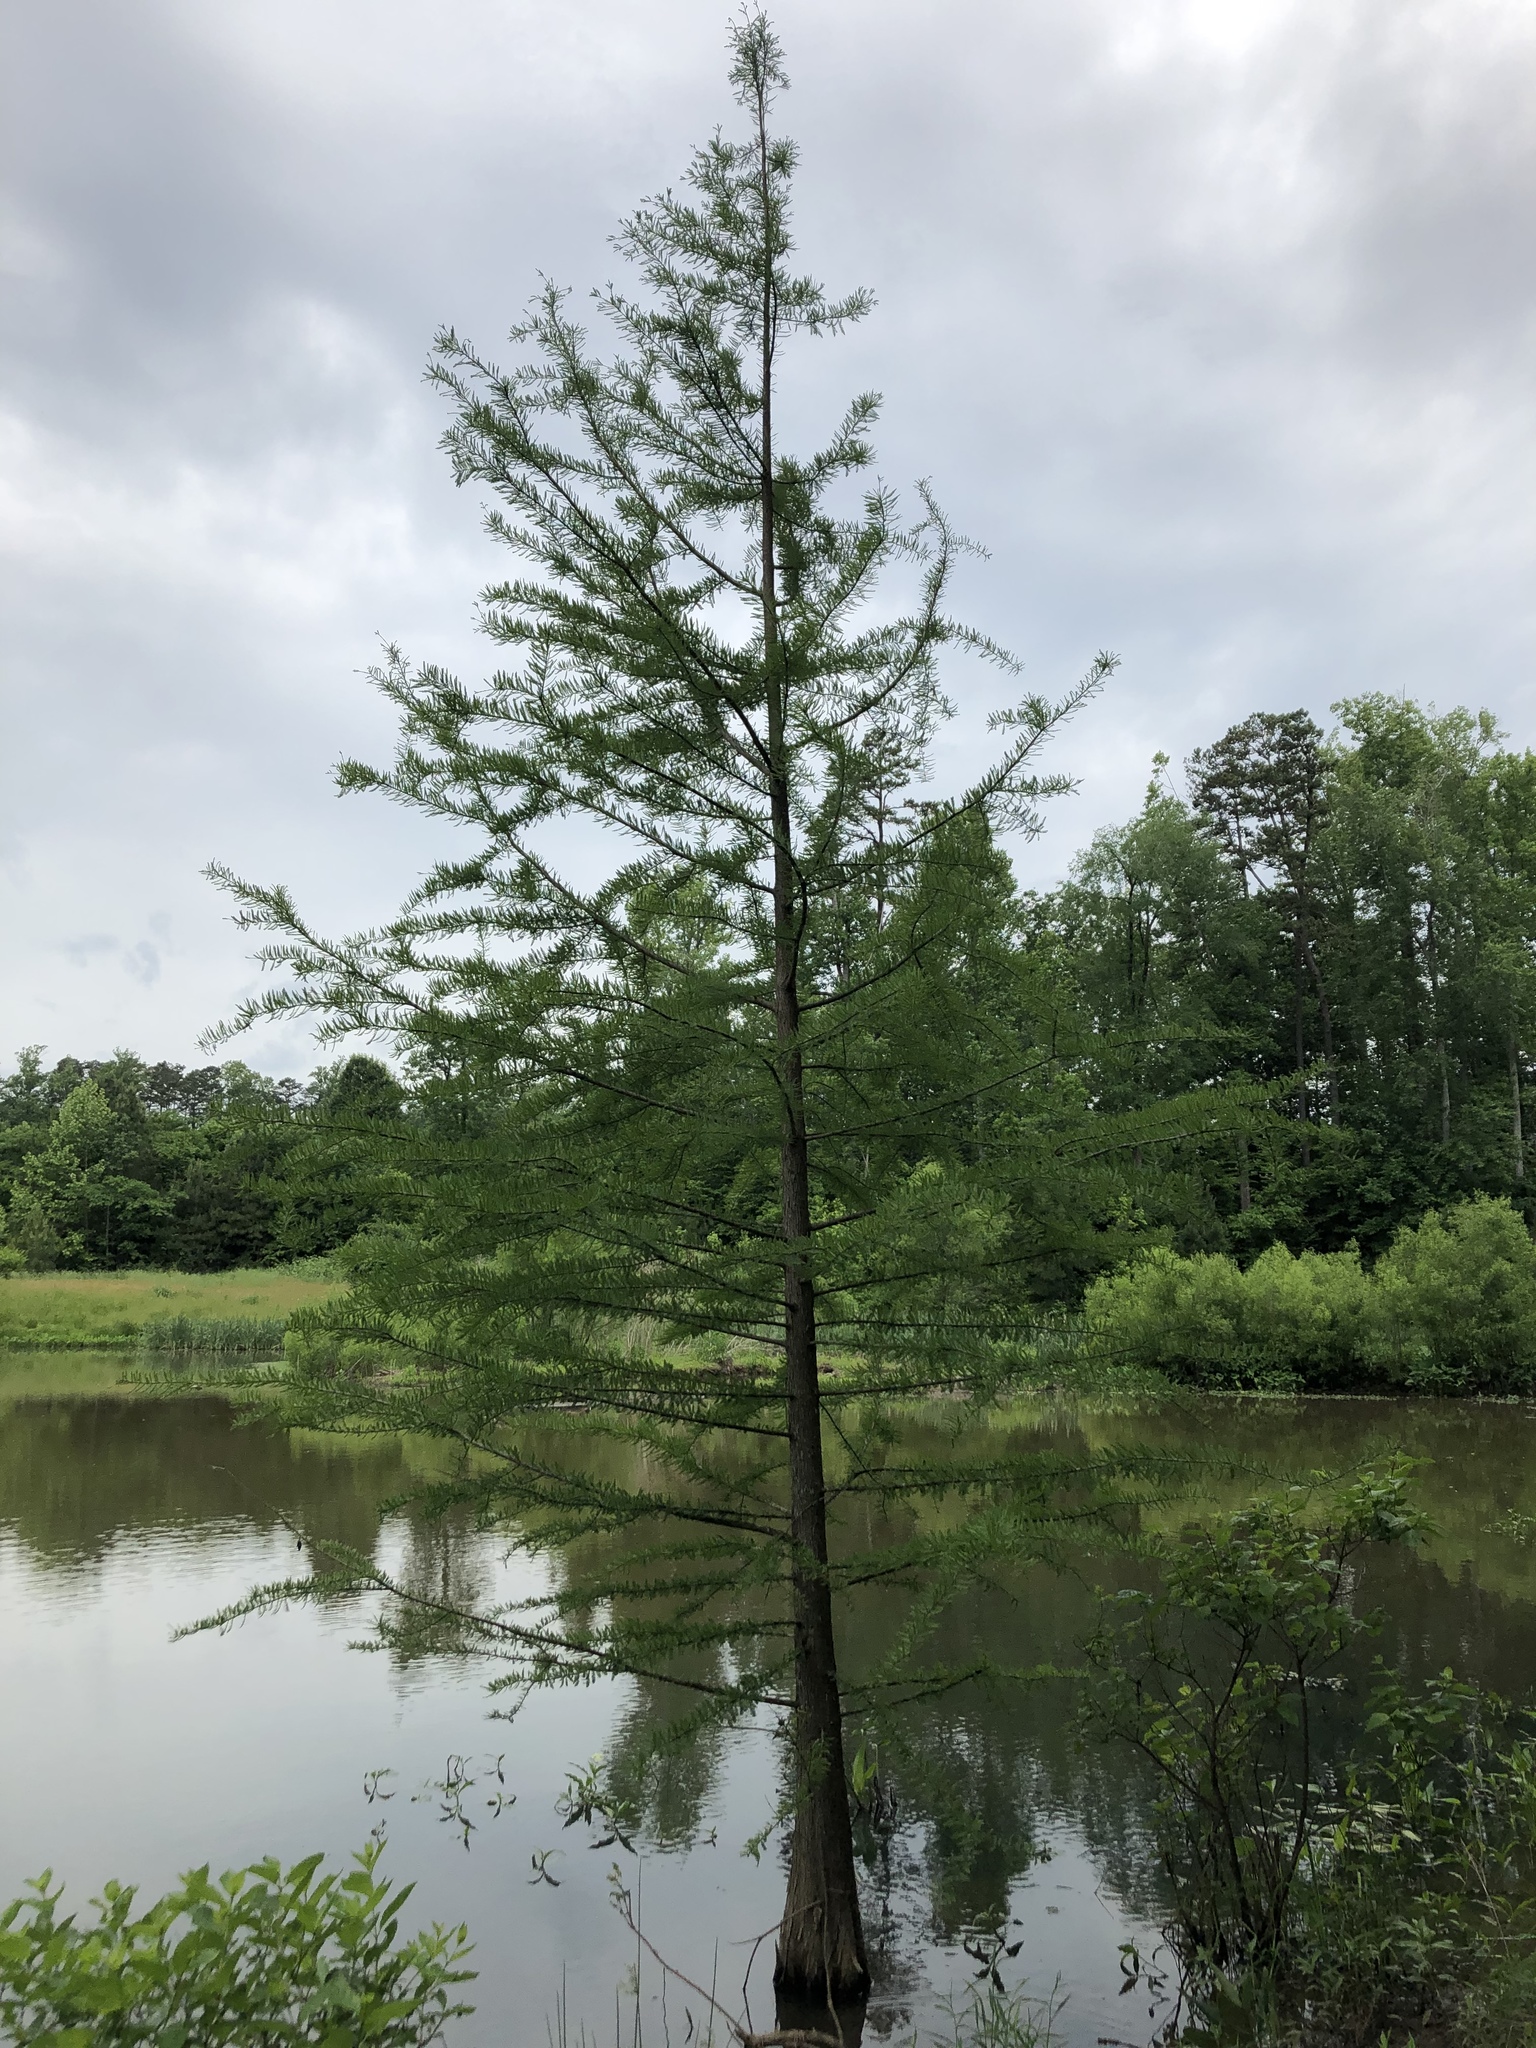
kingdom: Plantae
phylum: Tracheophyta
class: Pinopsida
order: Pinales
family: Cupressaceae
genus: Taxodium
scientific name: Taxodium distichum
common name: Bald cypress
